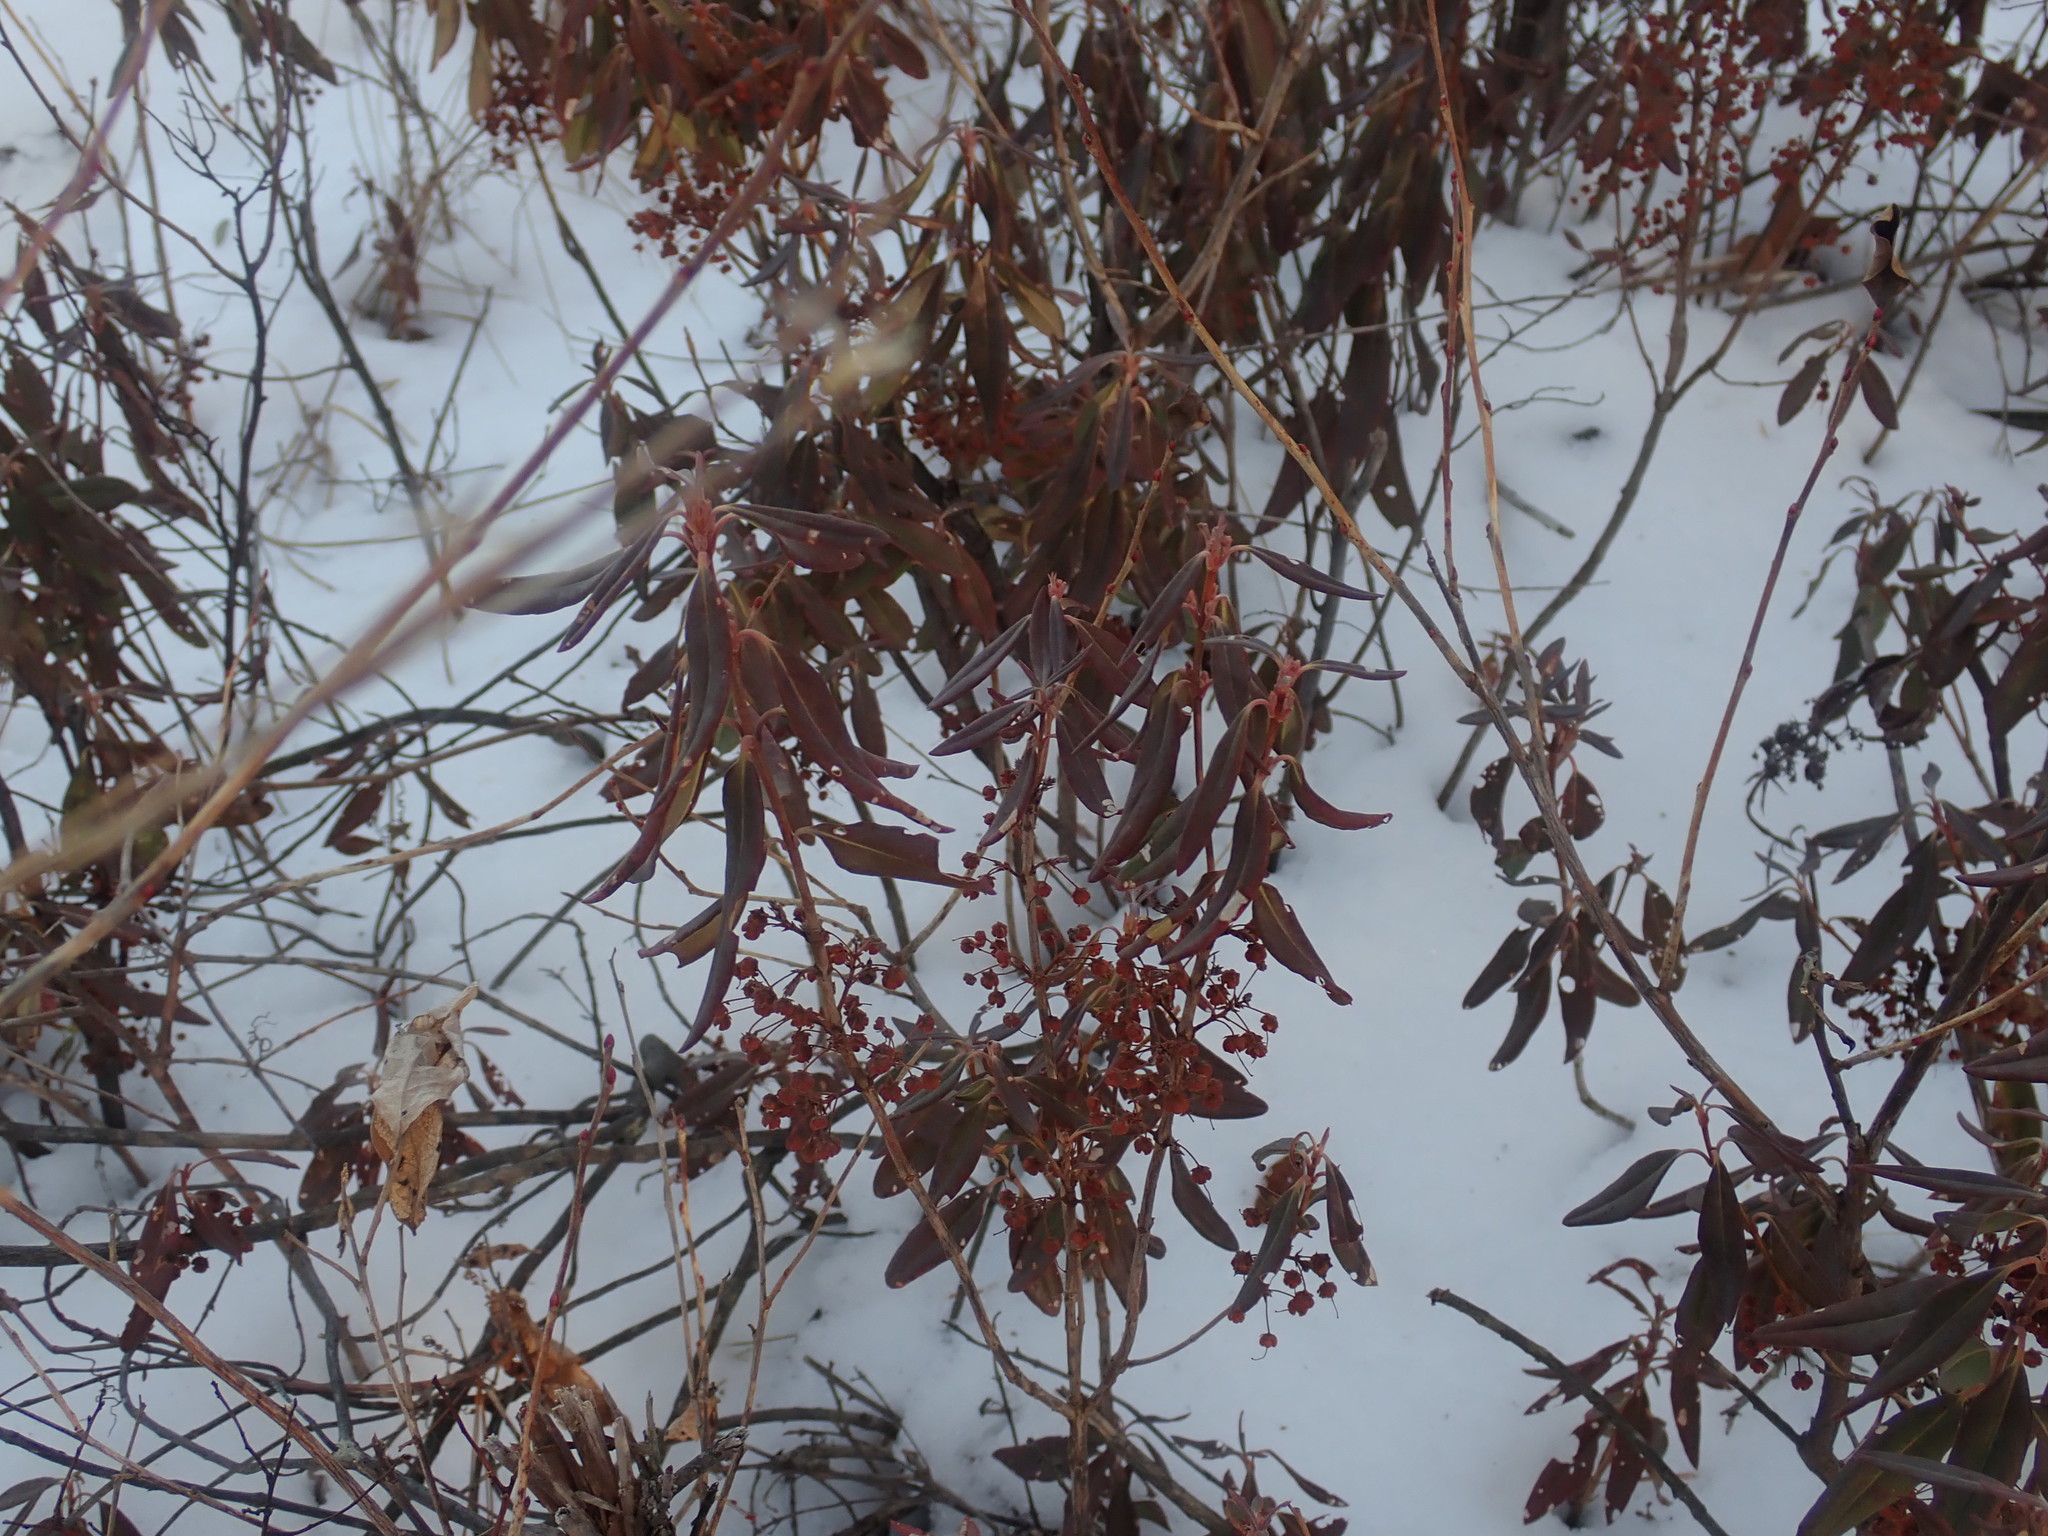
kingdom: Plantae
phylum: Tracheophyta
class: Magnoliopsida
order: Ericales
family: Ericaceae
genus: Kalmia
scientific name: Kalmia angustifolia
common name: Sheep-laurel
